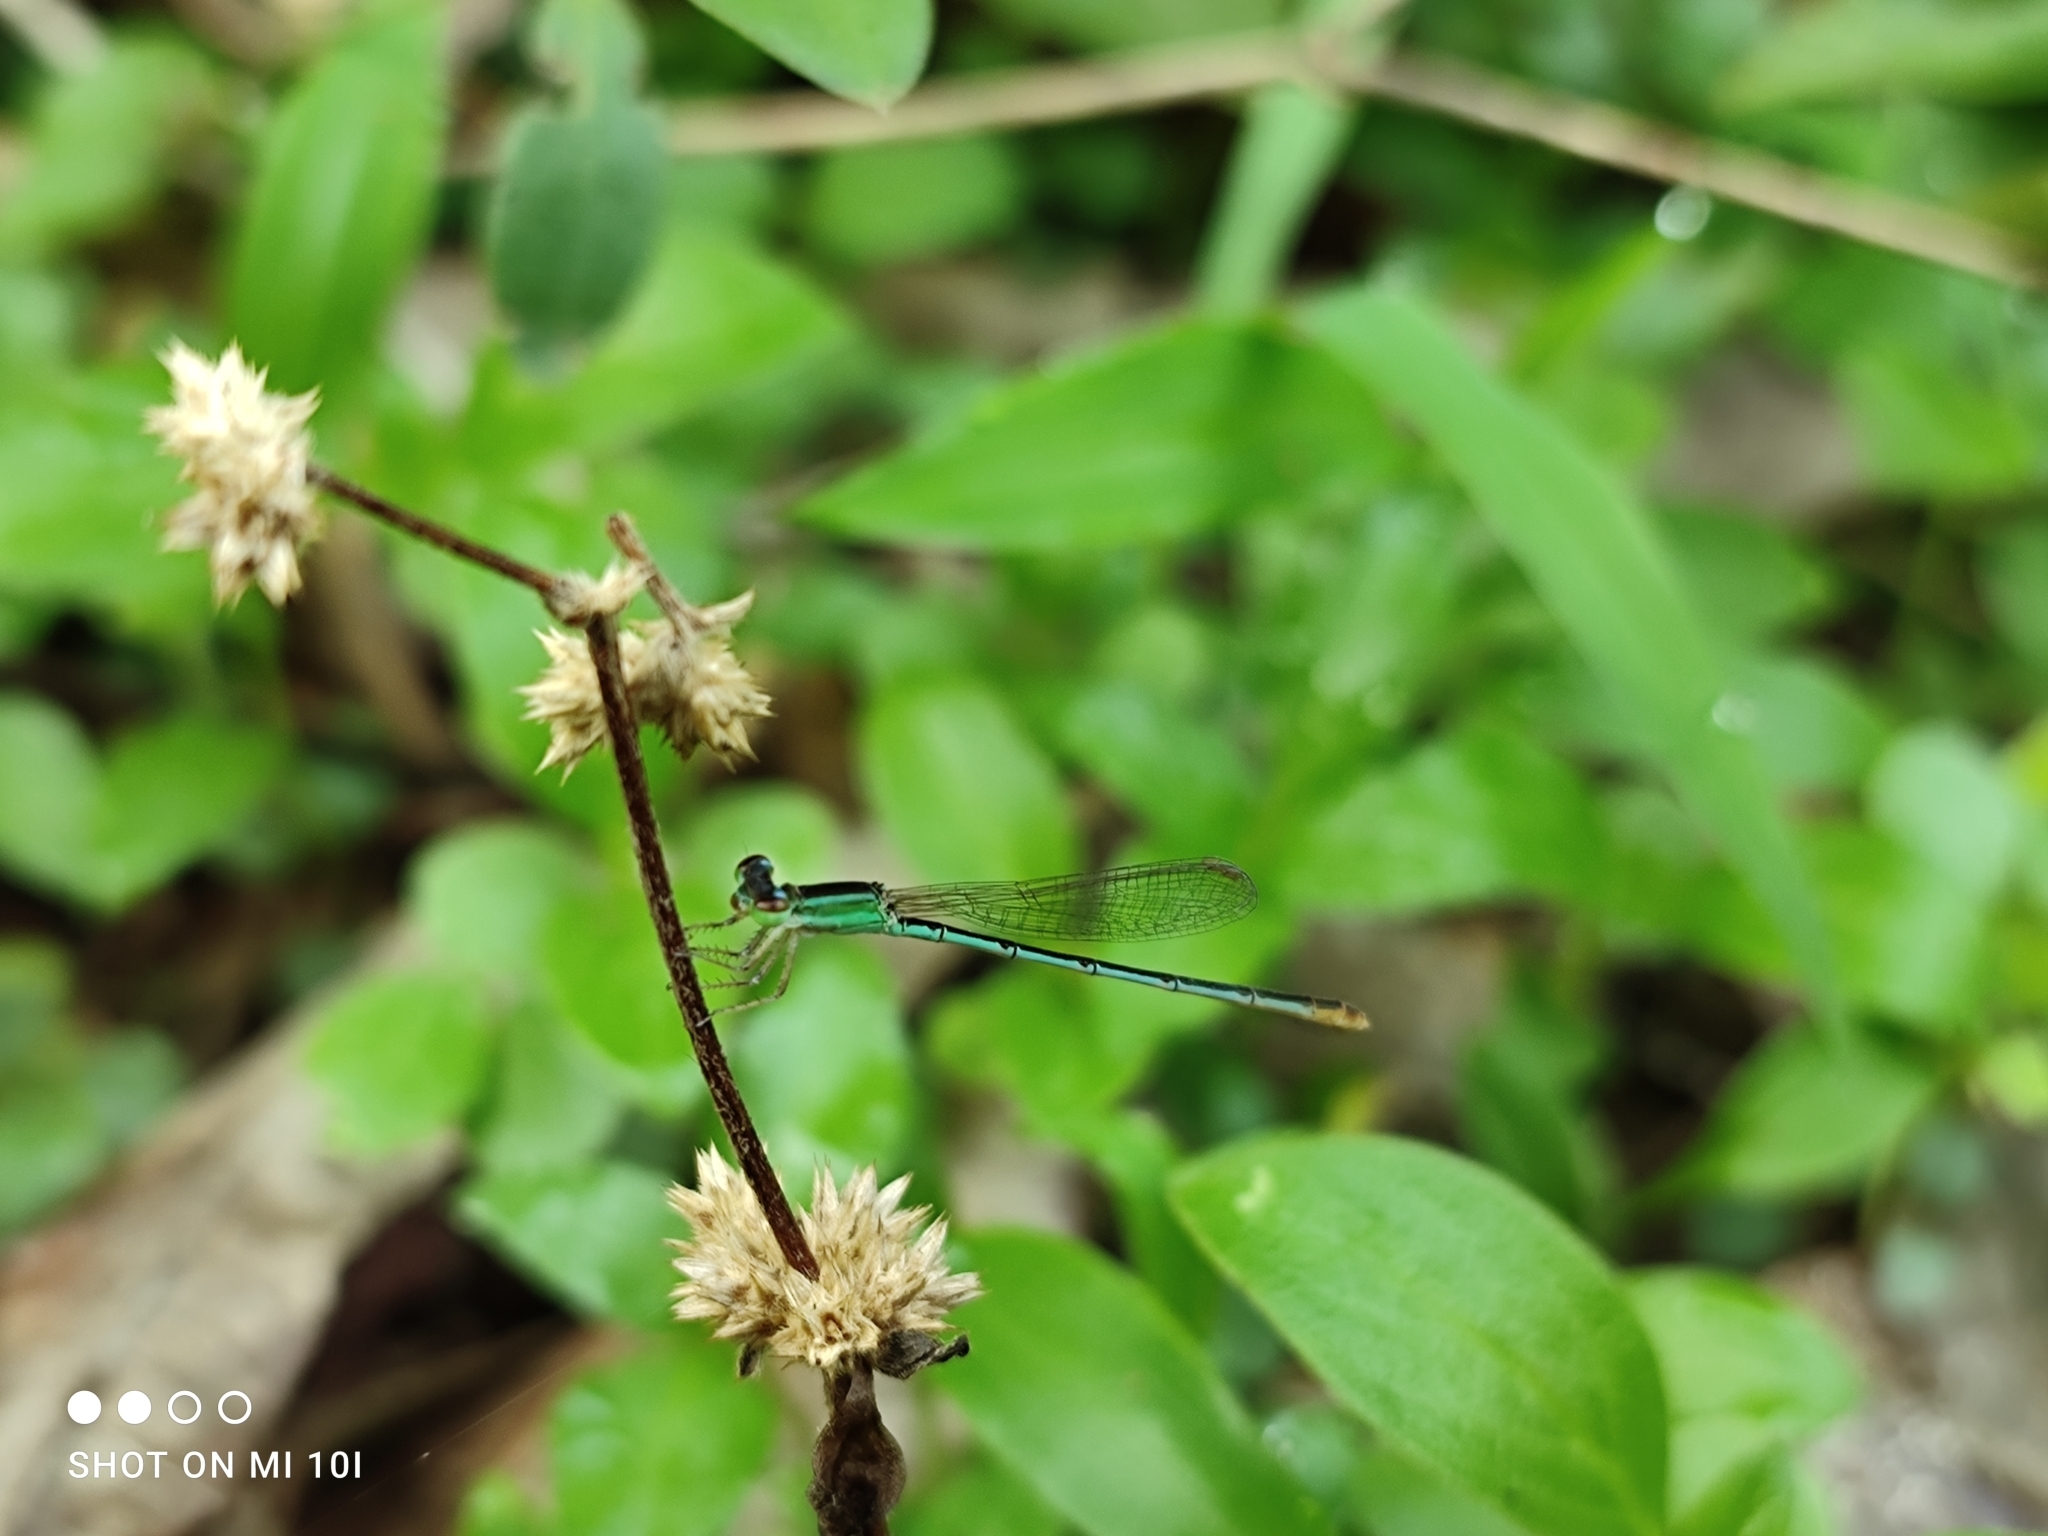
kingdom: Animalia
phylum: Arthropoda
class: Insecta
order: Odonata
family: Coenagrionidae
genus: Agriocnemis
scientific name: Agriocnemis pygmaea
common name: Pygmy wisp
